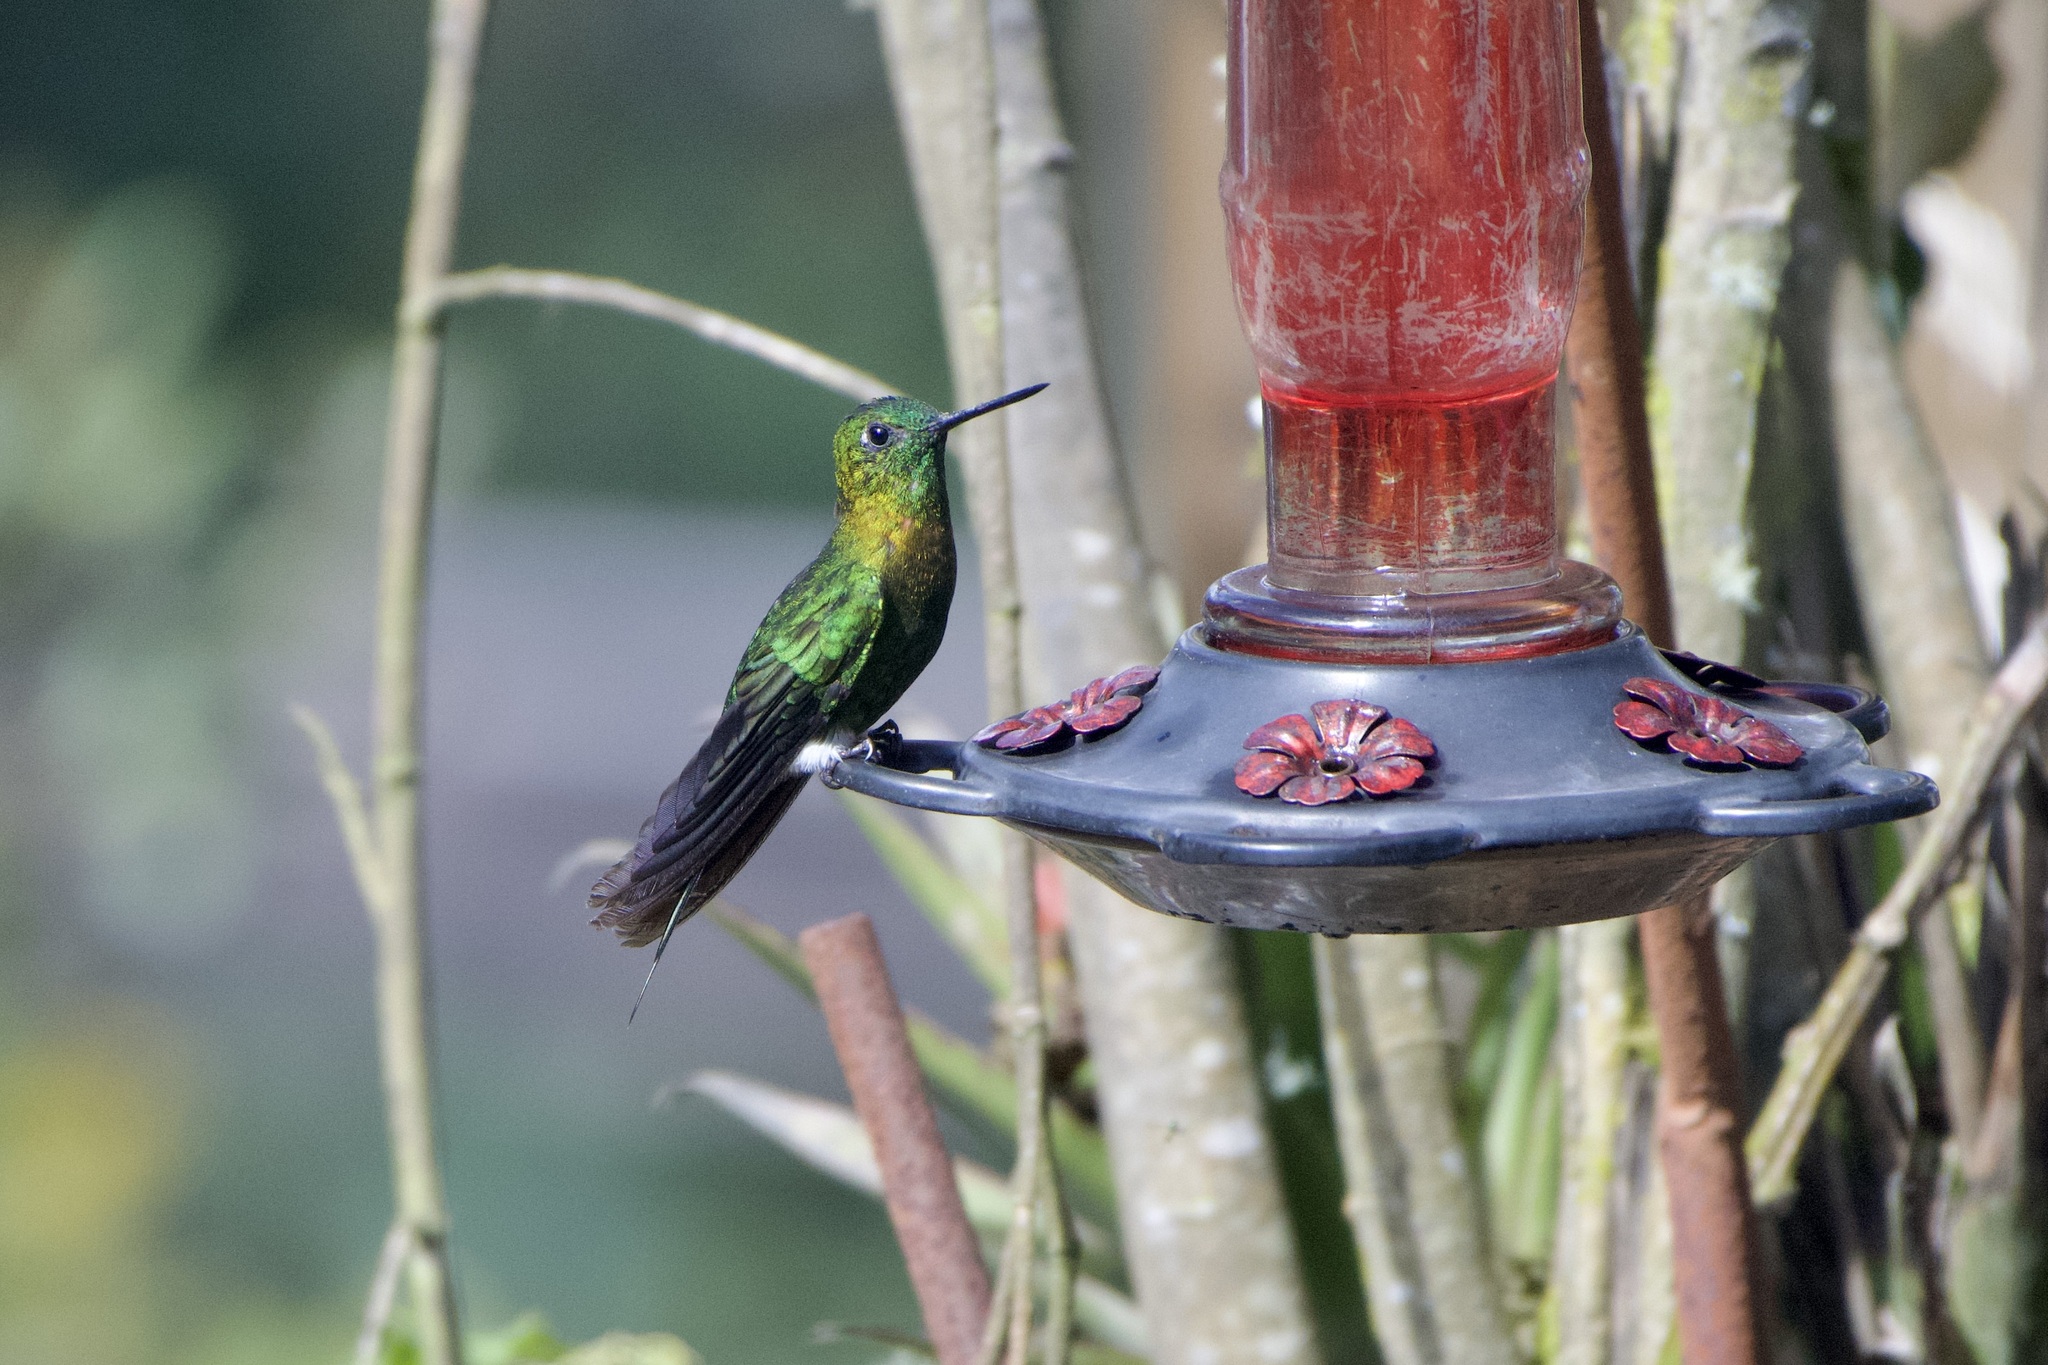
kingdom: Animalia
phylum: Chordata
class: Aves
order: Apodiformes
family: Trochilidae
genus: Eriocnemis
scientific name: Eriocnemis mosquera
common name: Golden-breasted puffleg
